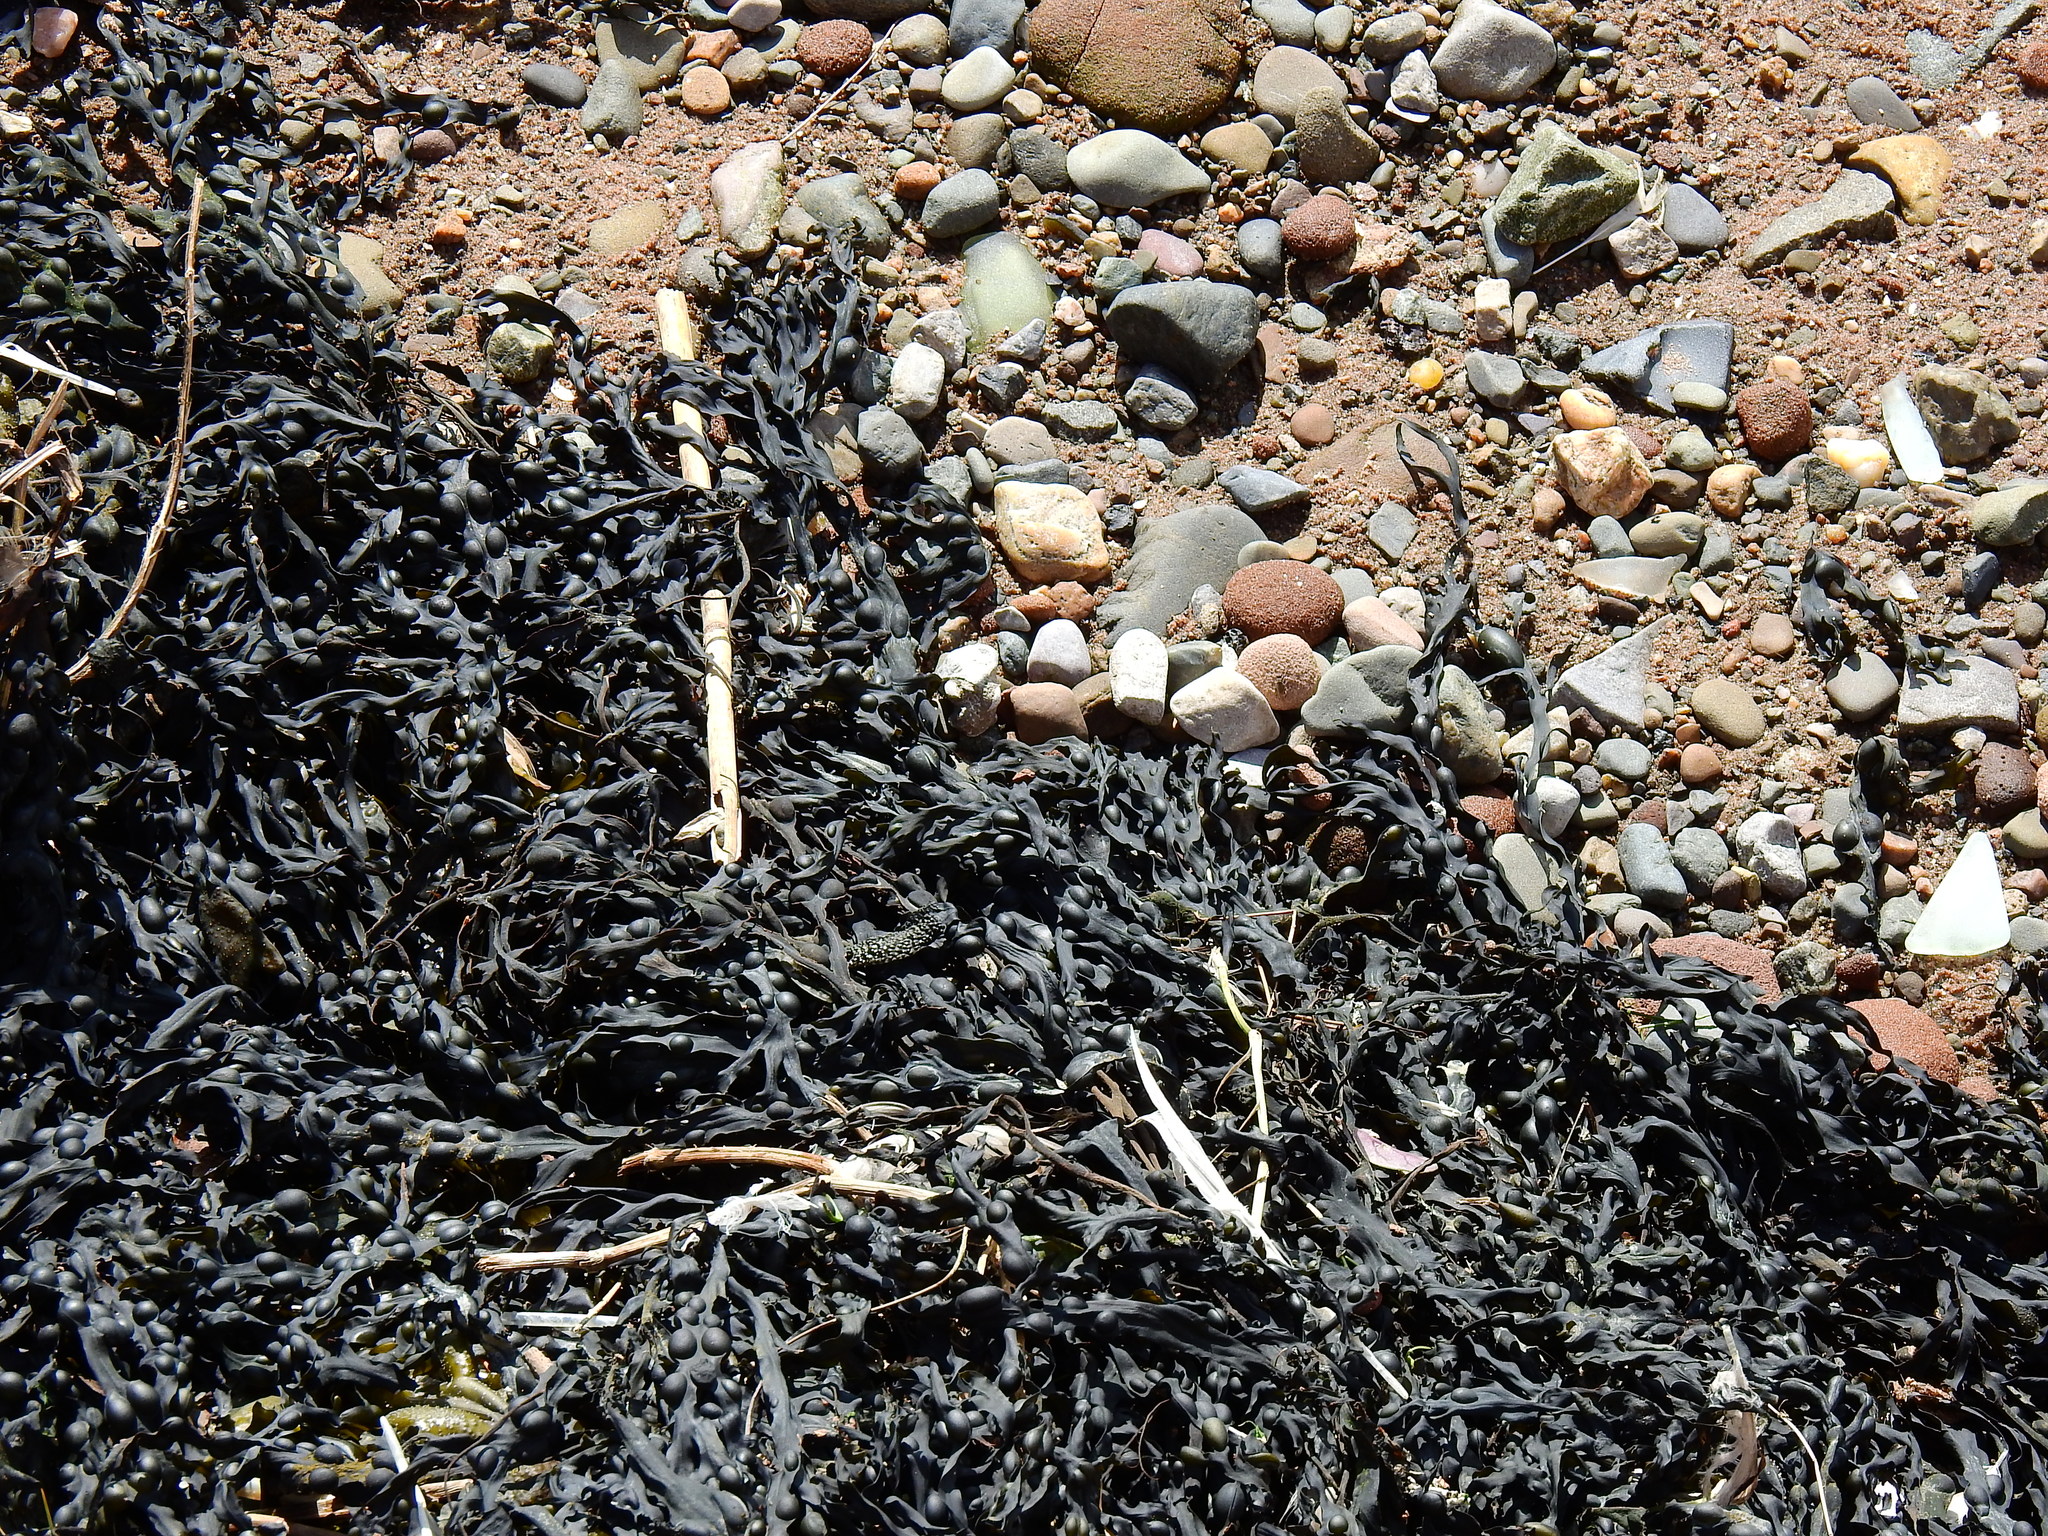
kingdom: Chromista
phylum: Ochrophyta
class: Phaeophyceae
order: Fucales
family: Fucaceae
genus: Fucus
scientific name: Fucus vesiculosus
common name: Bladder wrack
